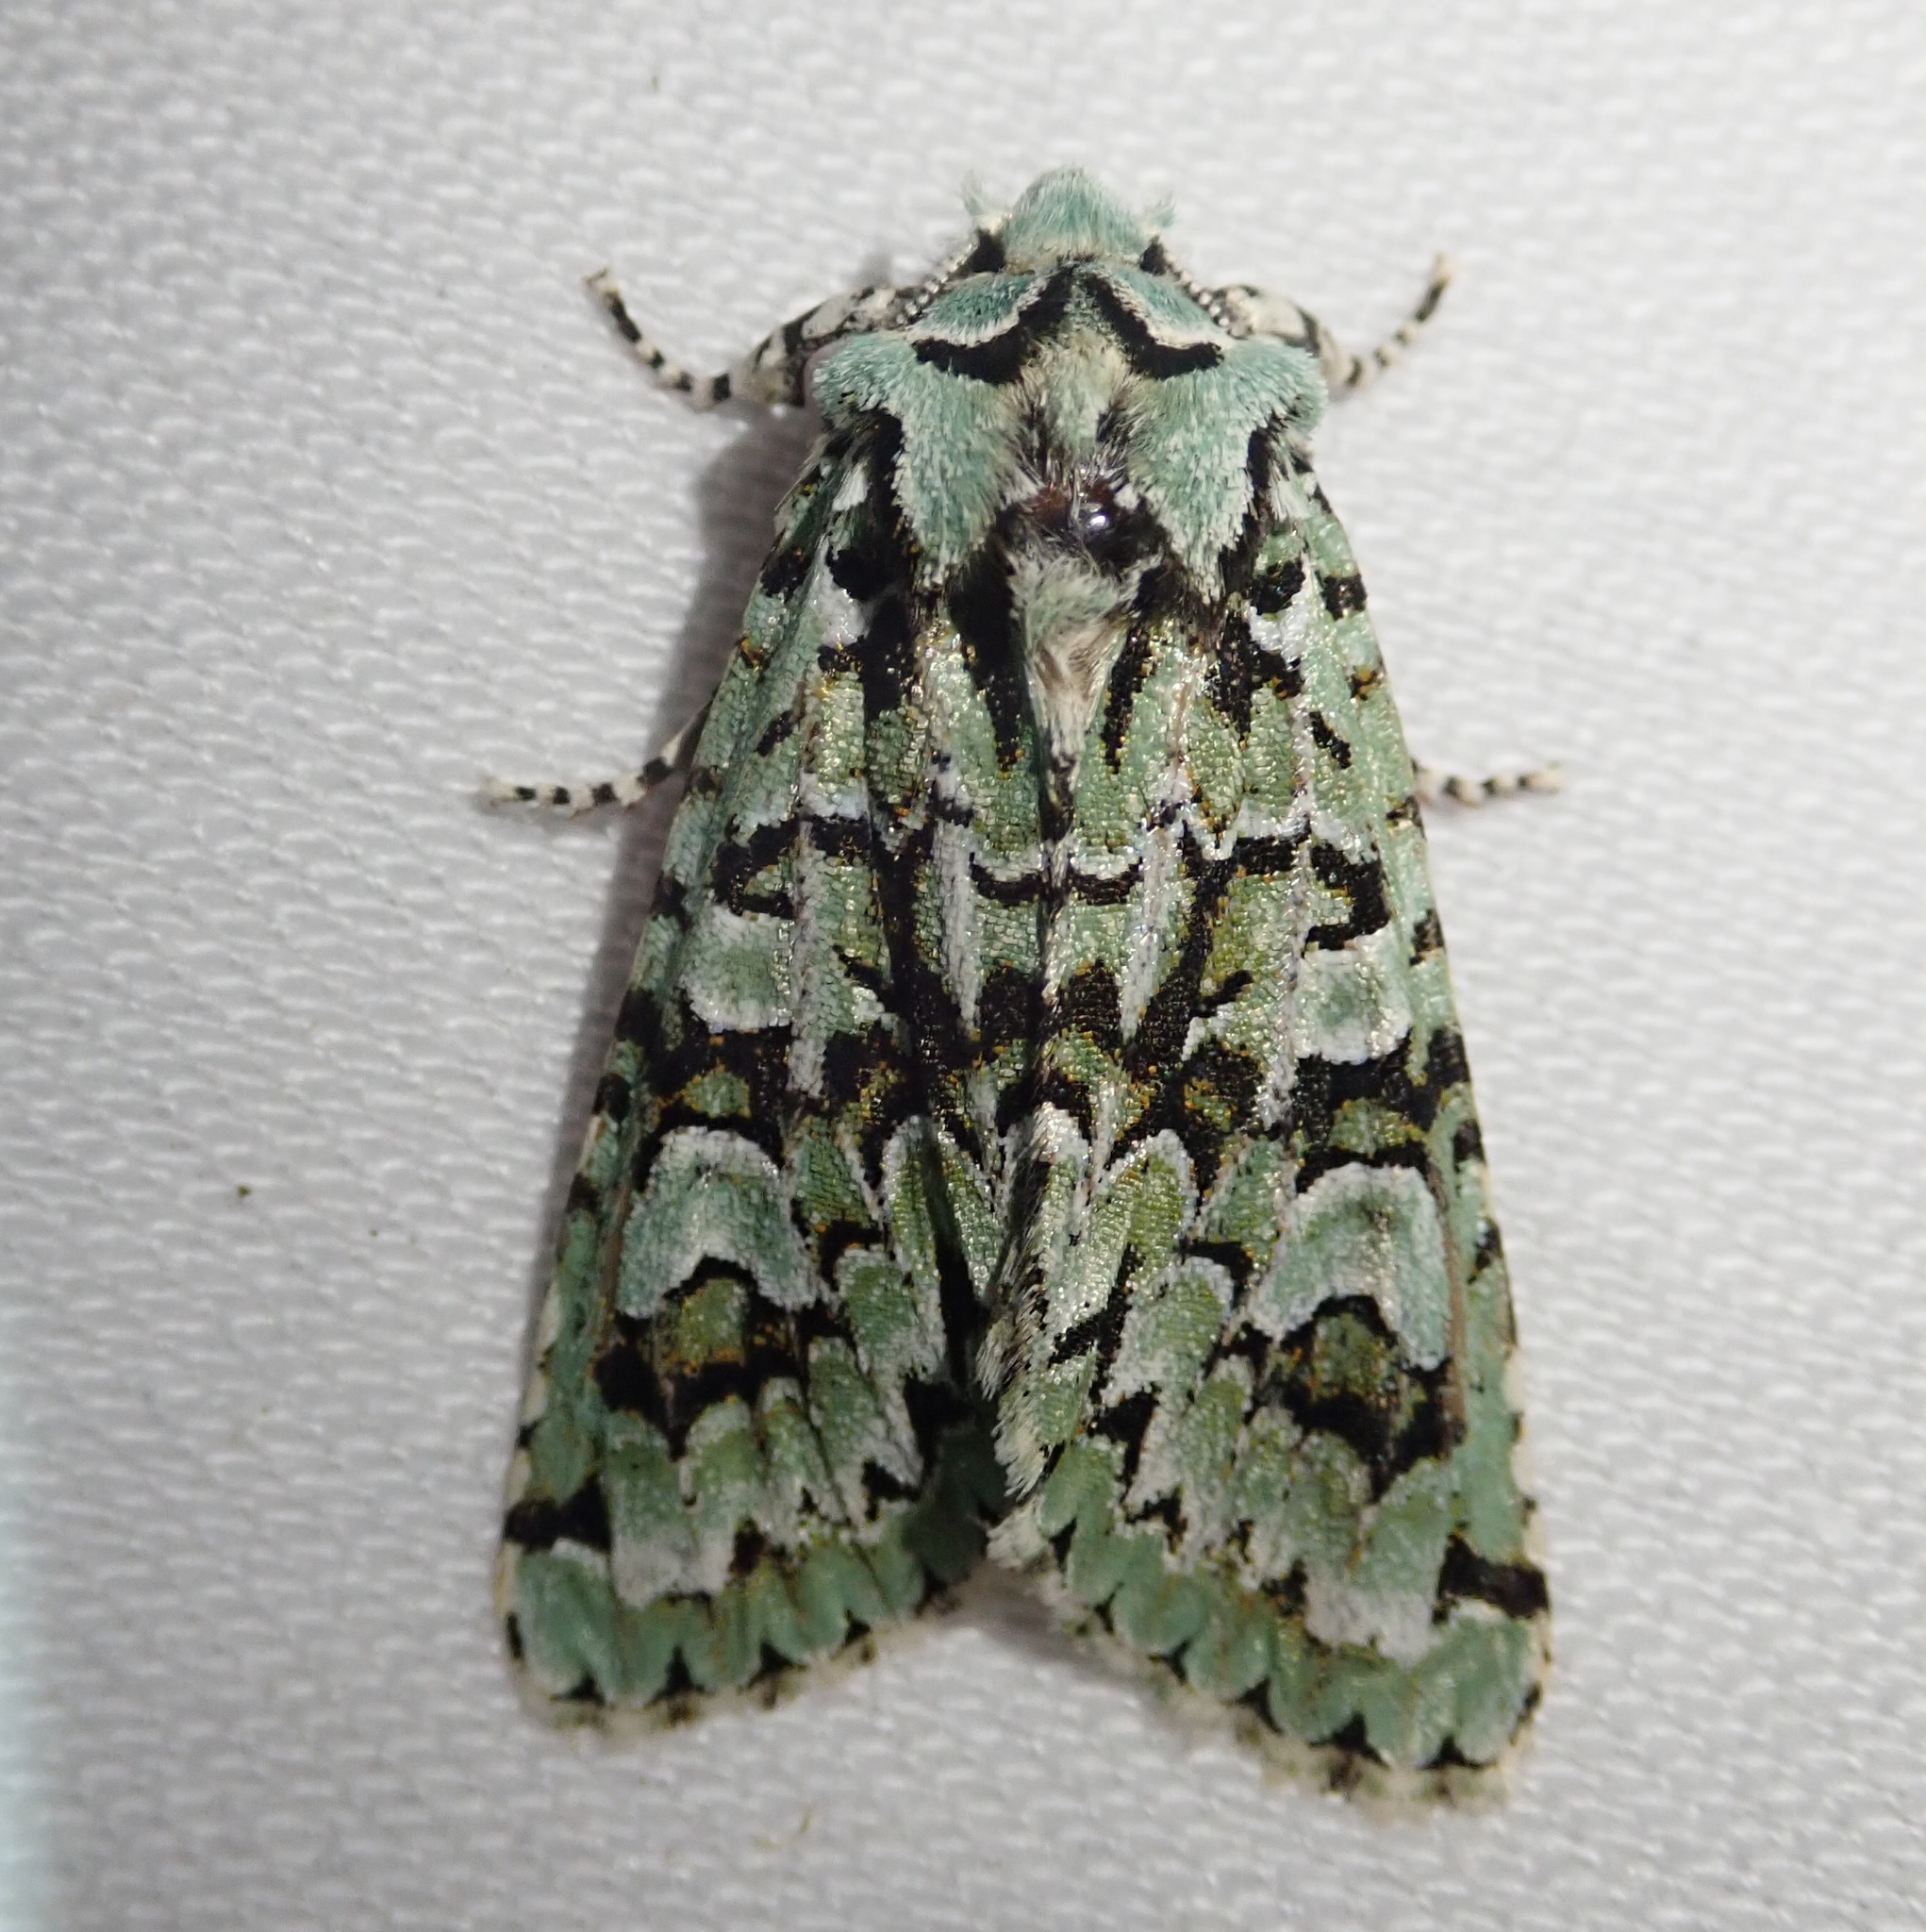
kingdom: Animalia
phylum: Arthropoda
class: Insecta
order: Lepidoptera
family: Noctuidae
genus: Griposia
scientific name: Griposia aprilina
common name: Merveille du jour
